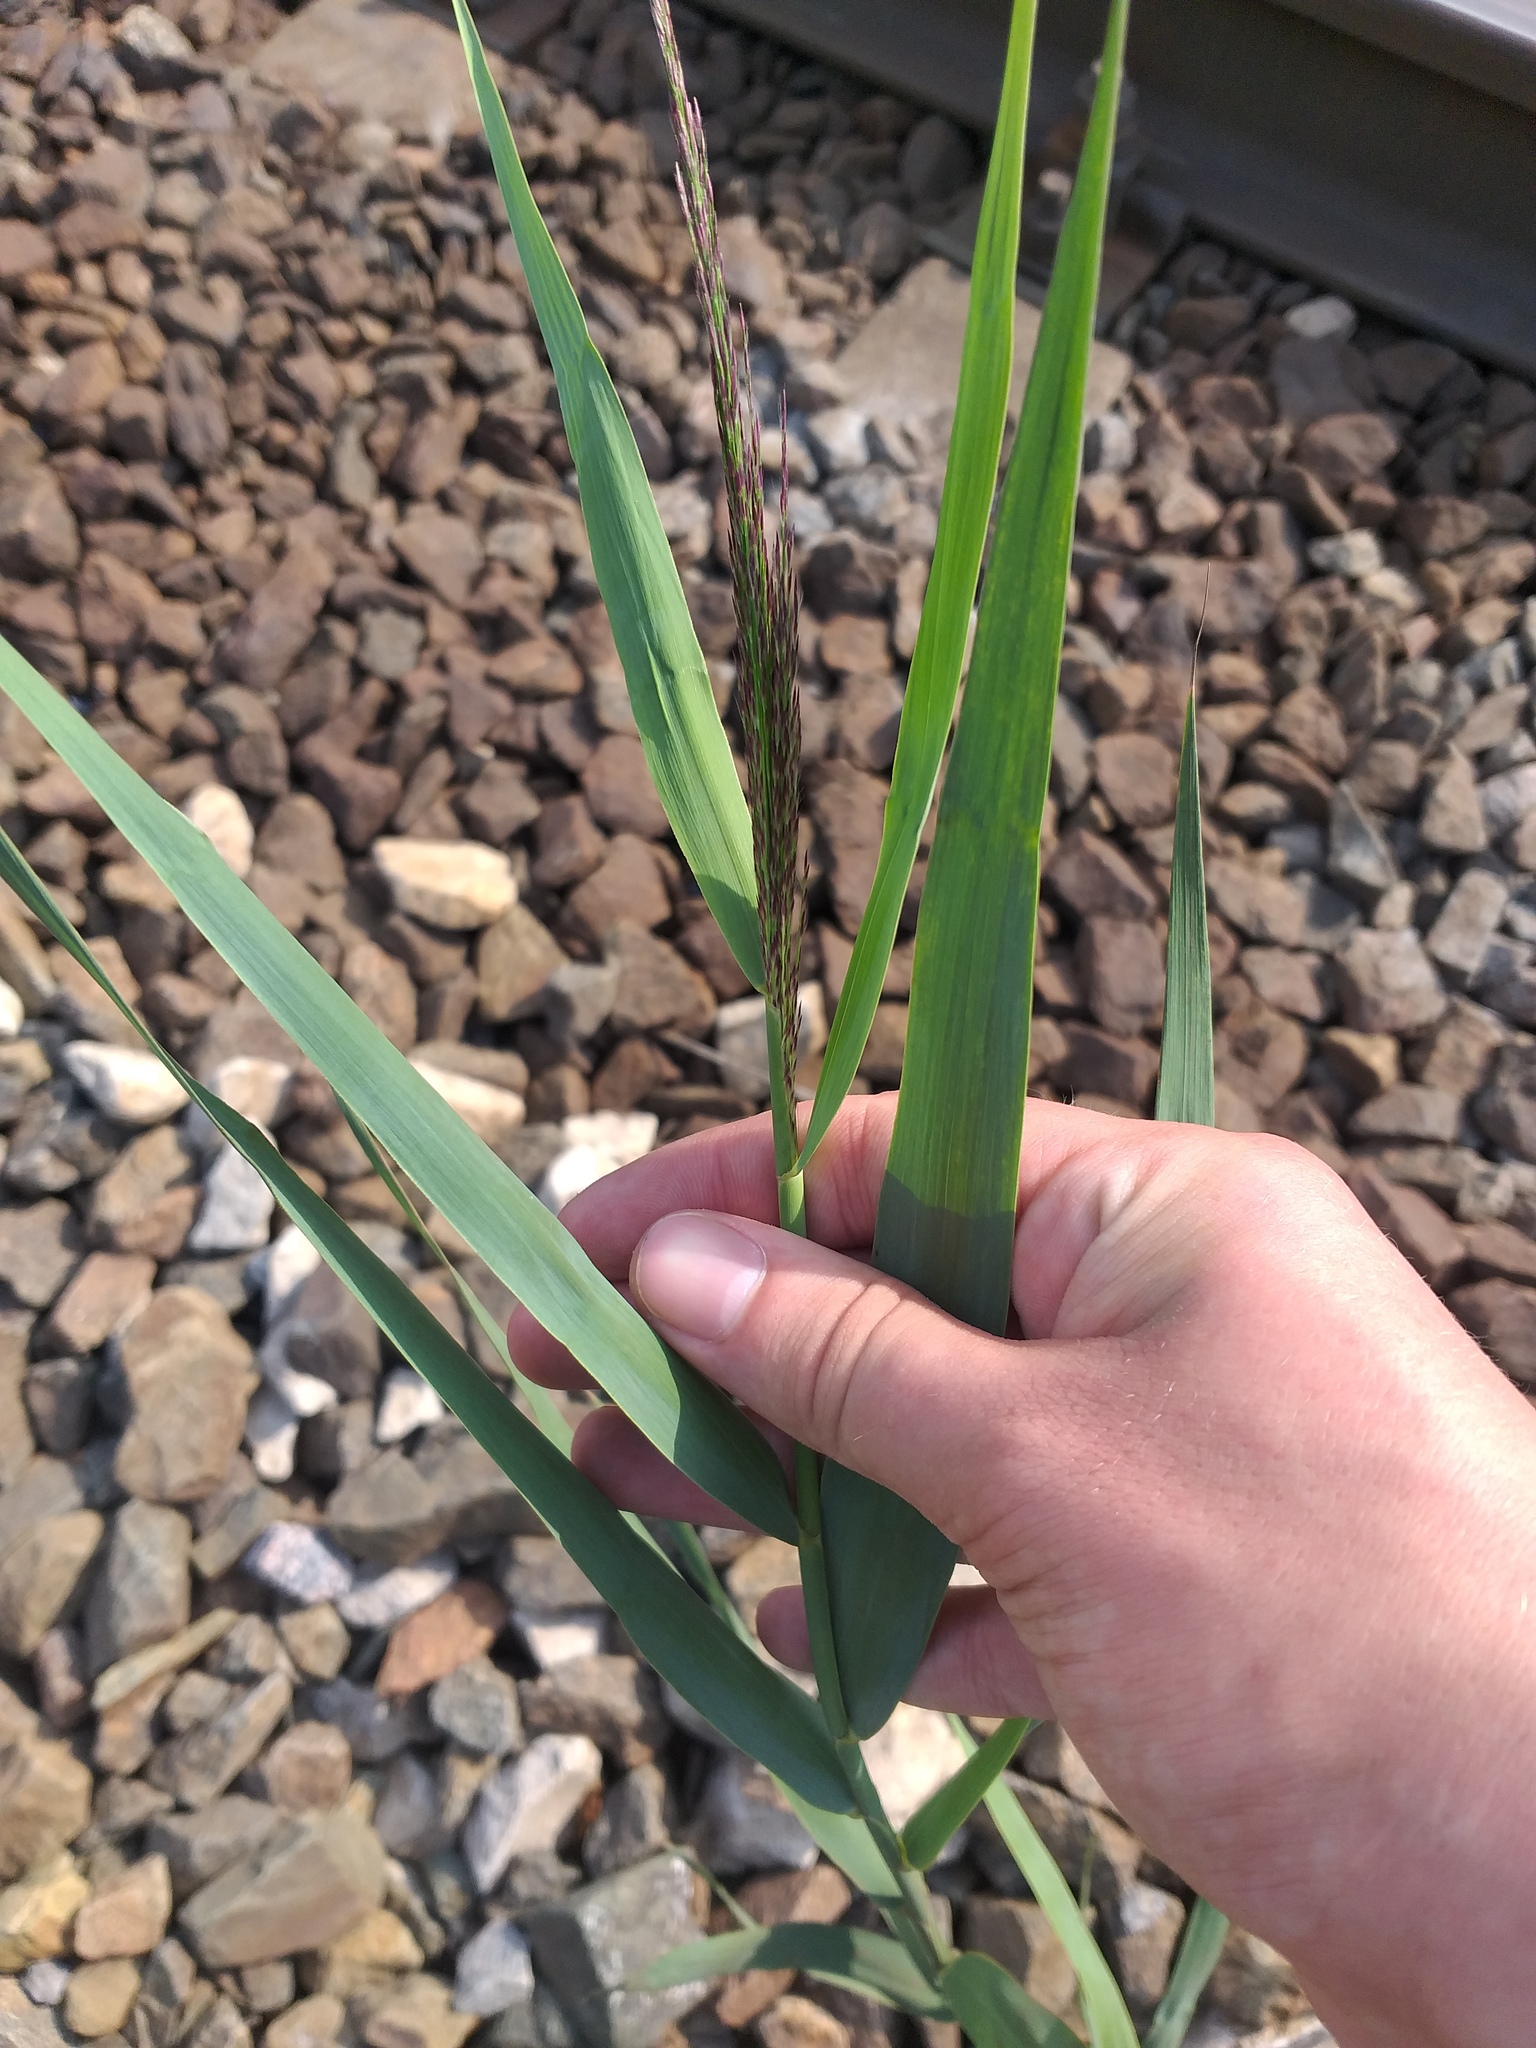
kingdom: Plantae
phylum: Tracheophyta
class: Liliopsida
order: Poales
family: Poaceae
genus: Phragmites
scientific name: Phragmites australis
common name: Common reed
